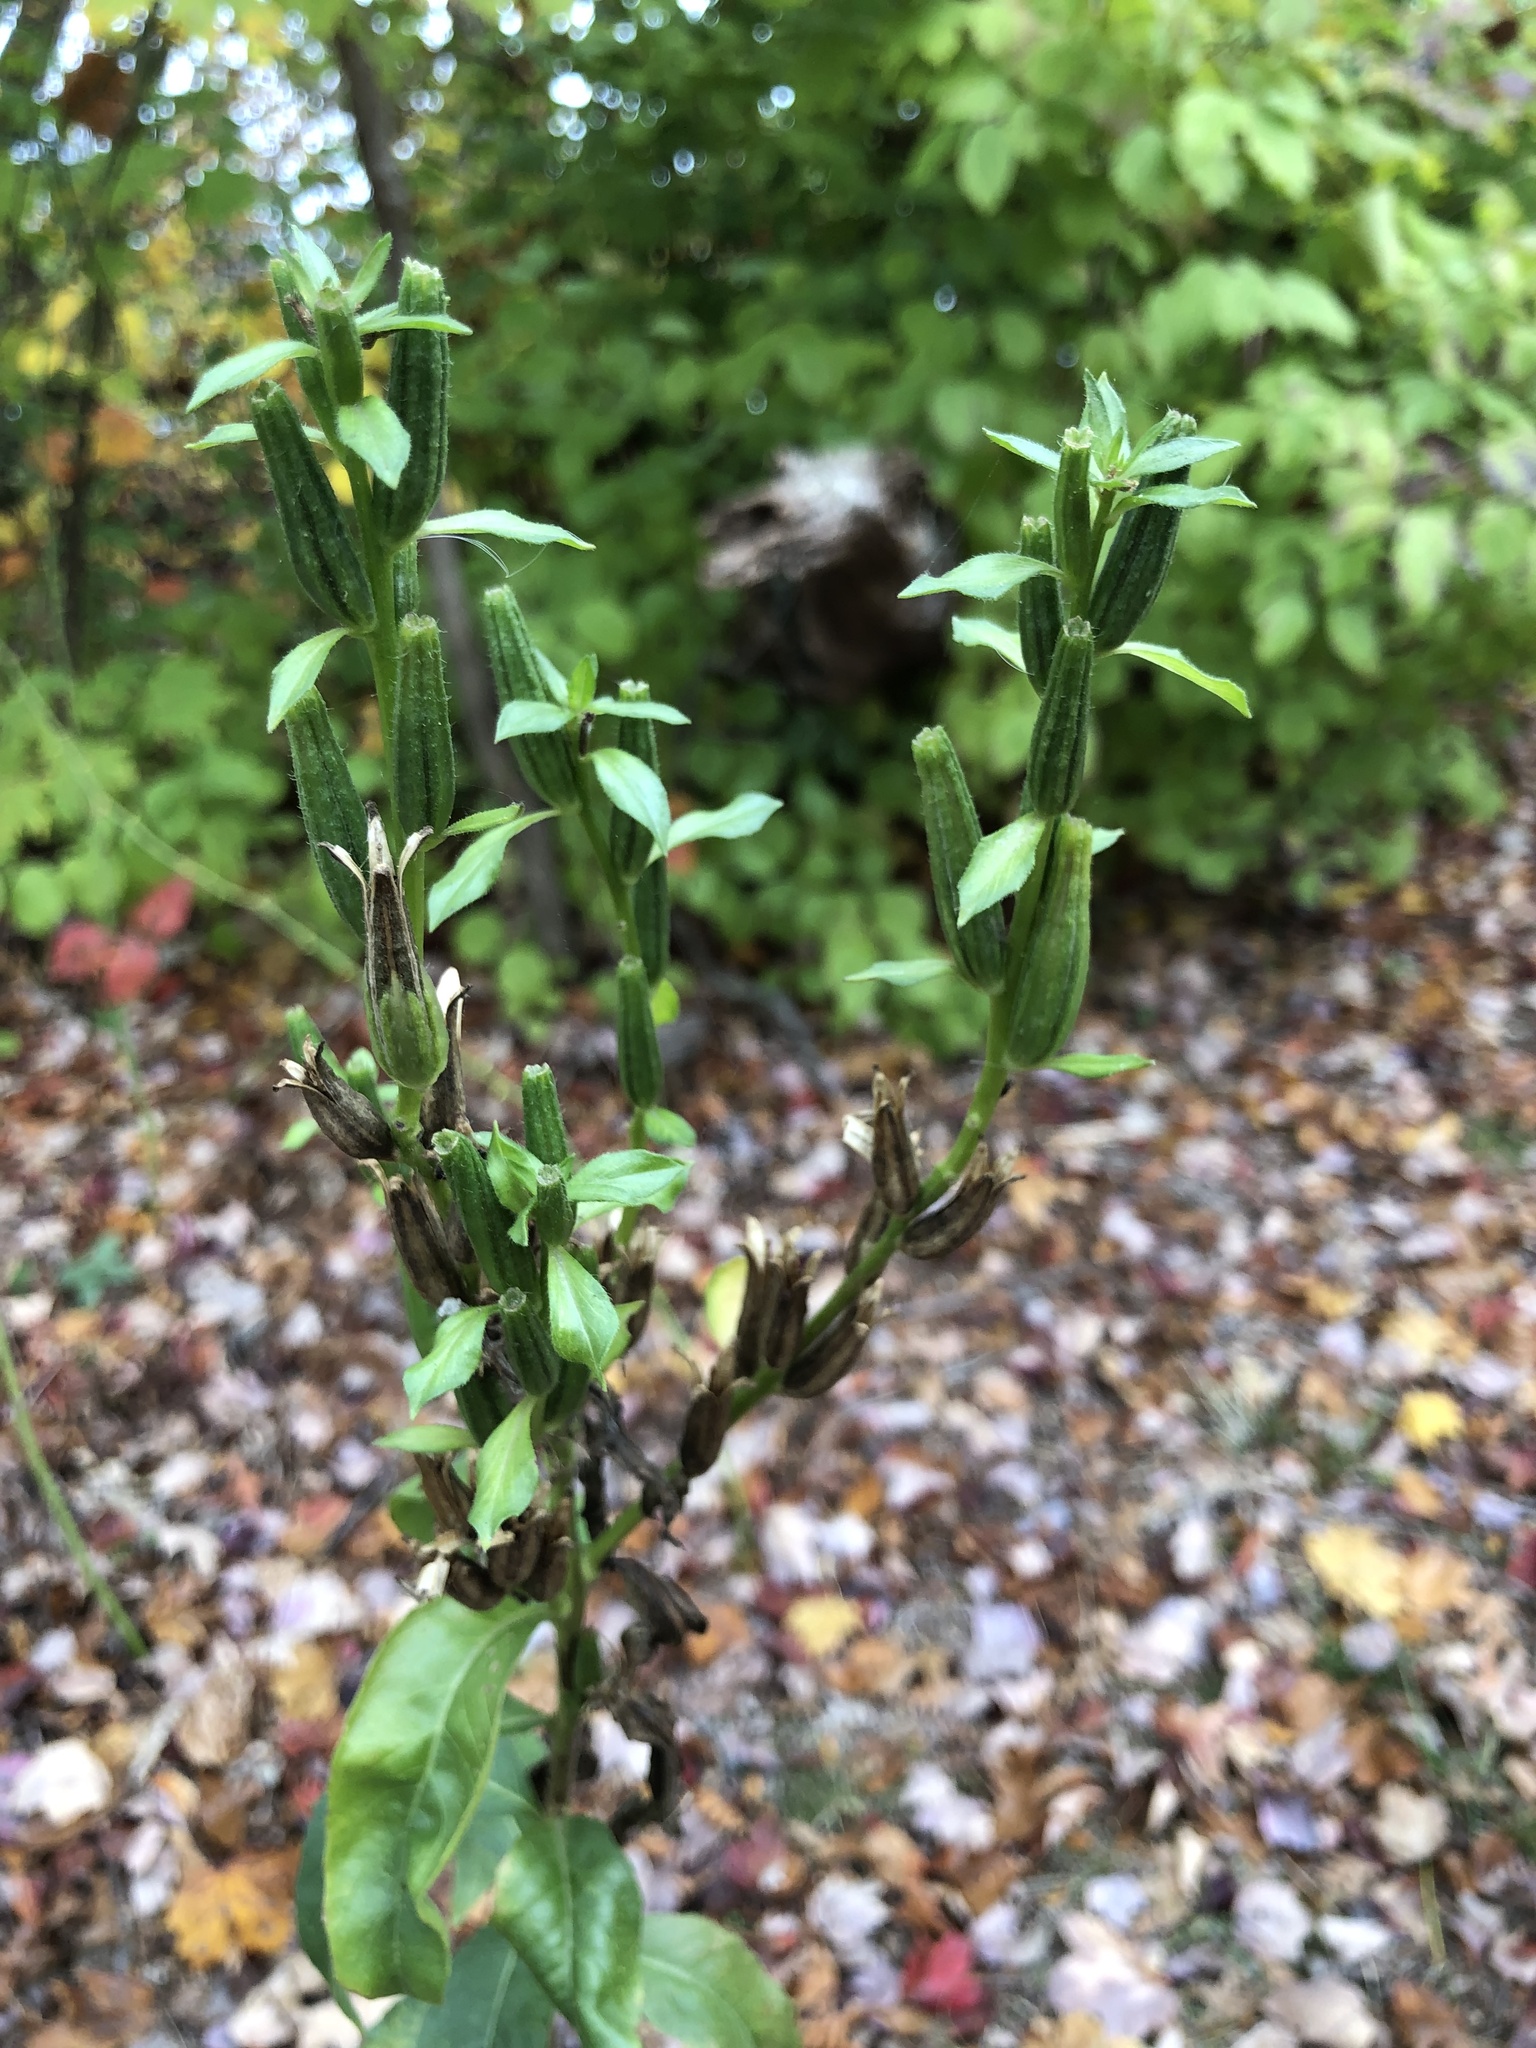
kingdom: Plantae
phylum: Tracheophyta
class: Magnoliopsida
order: Myrtales
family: Onagraceae
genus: Oenothera
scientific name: Oenothera biennis
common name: Common evening-primrose
